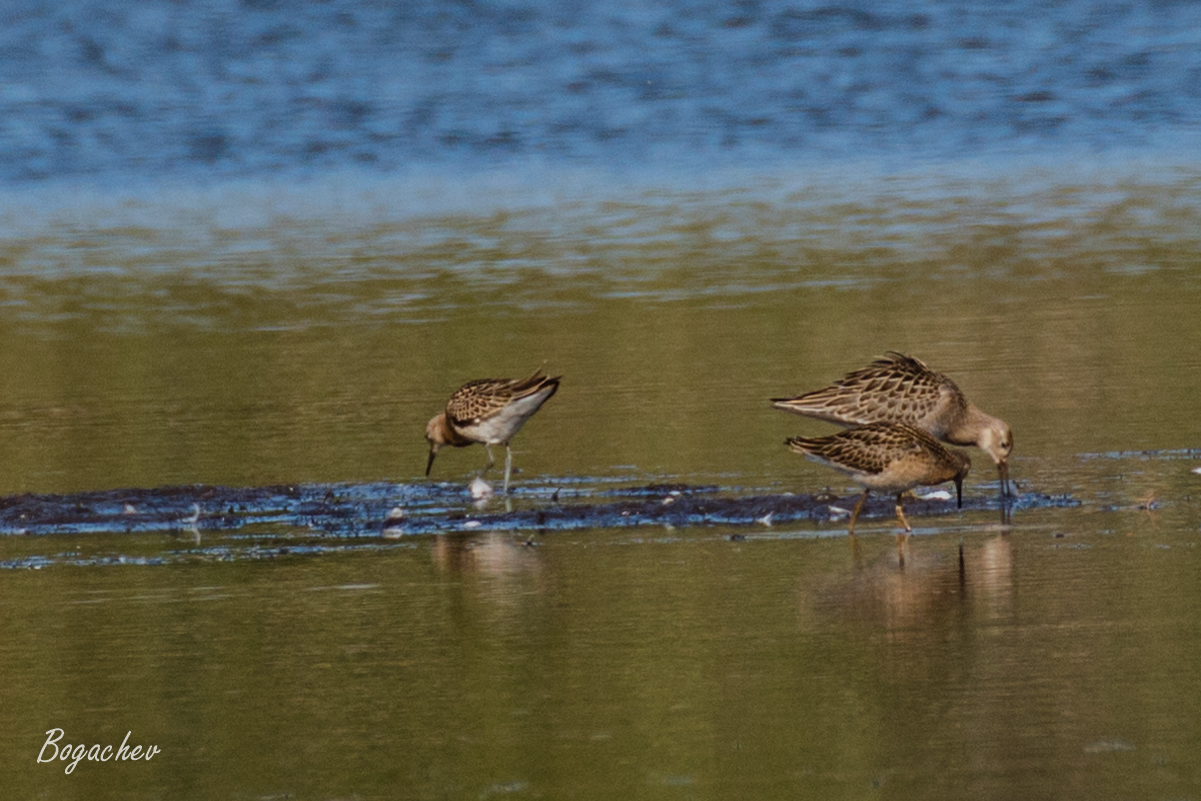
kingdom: Animalia
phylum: Chordata
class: Aves
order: Charadriiformes
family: Scolopacidae
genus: Calidris
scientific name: Calidris pugnax
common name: Ruff
